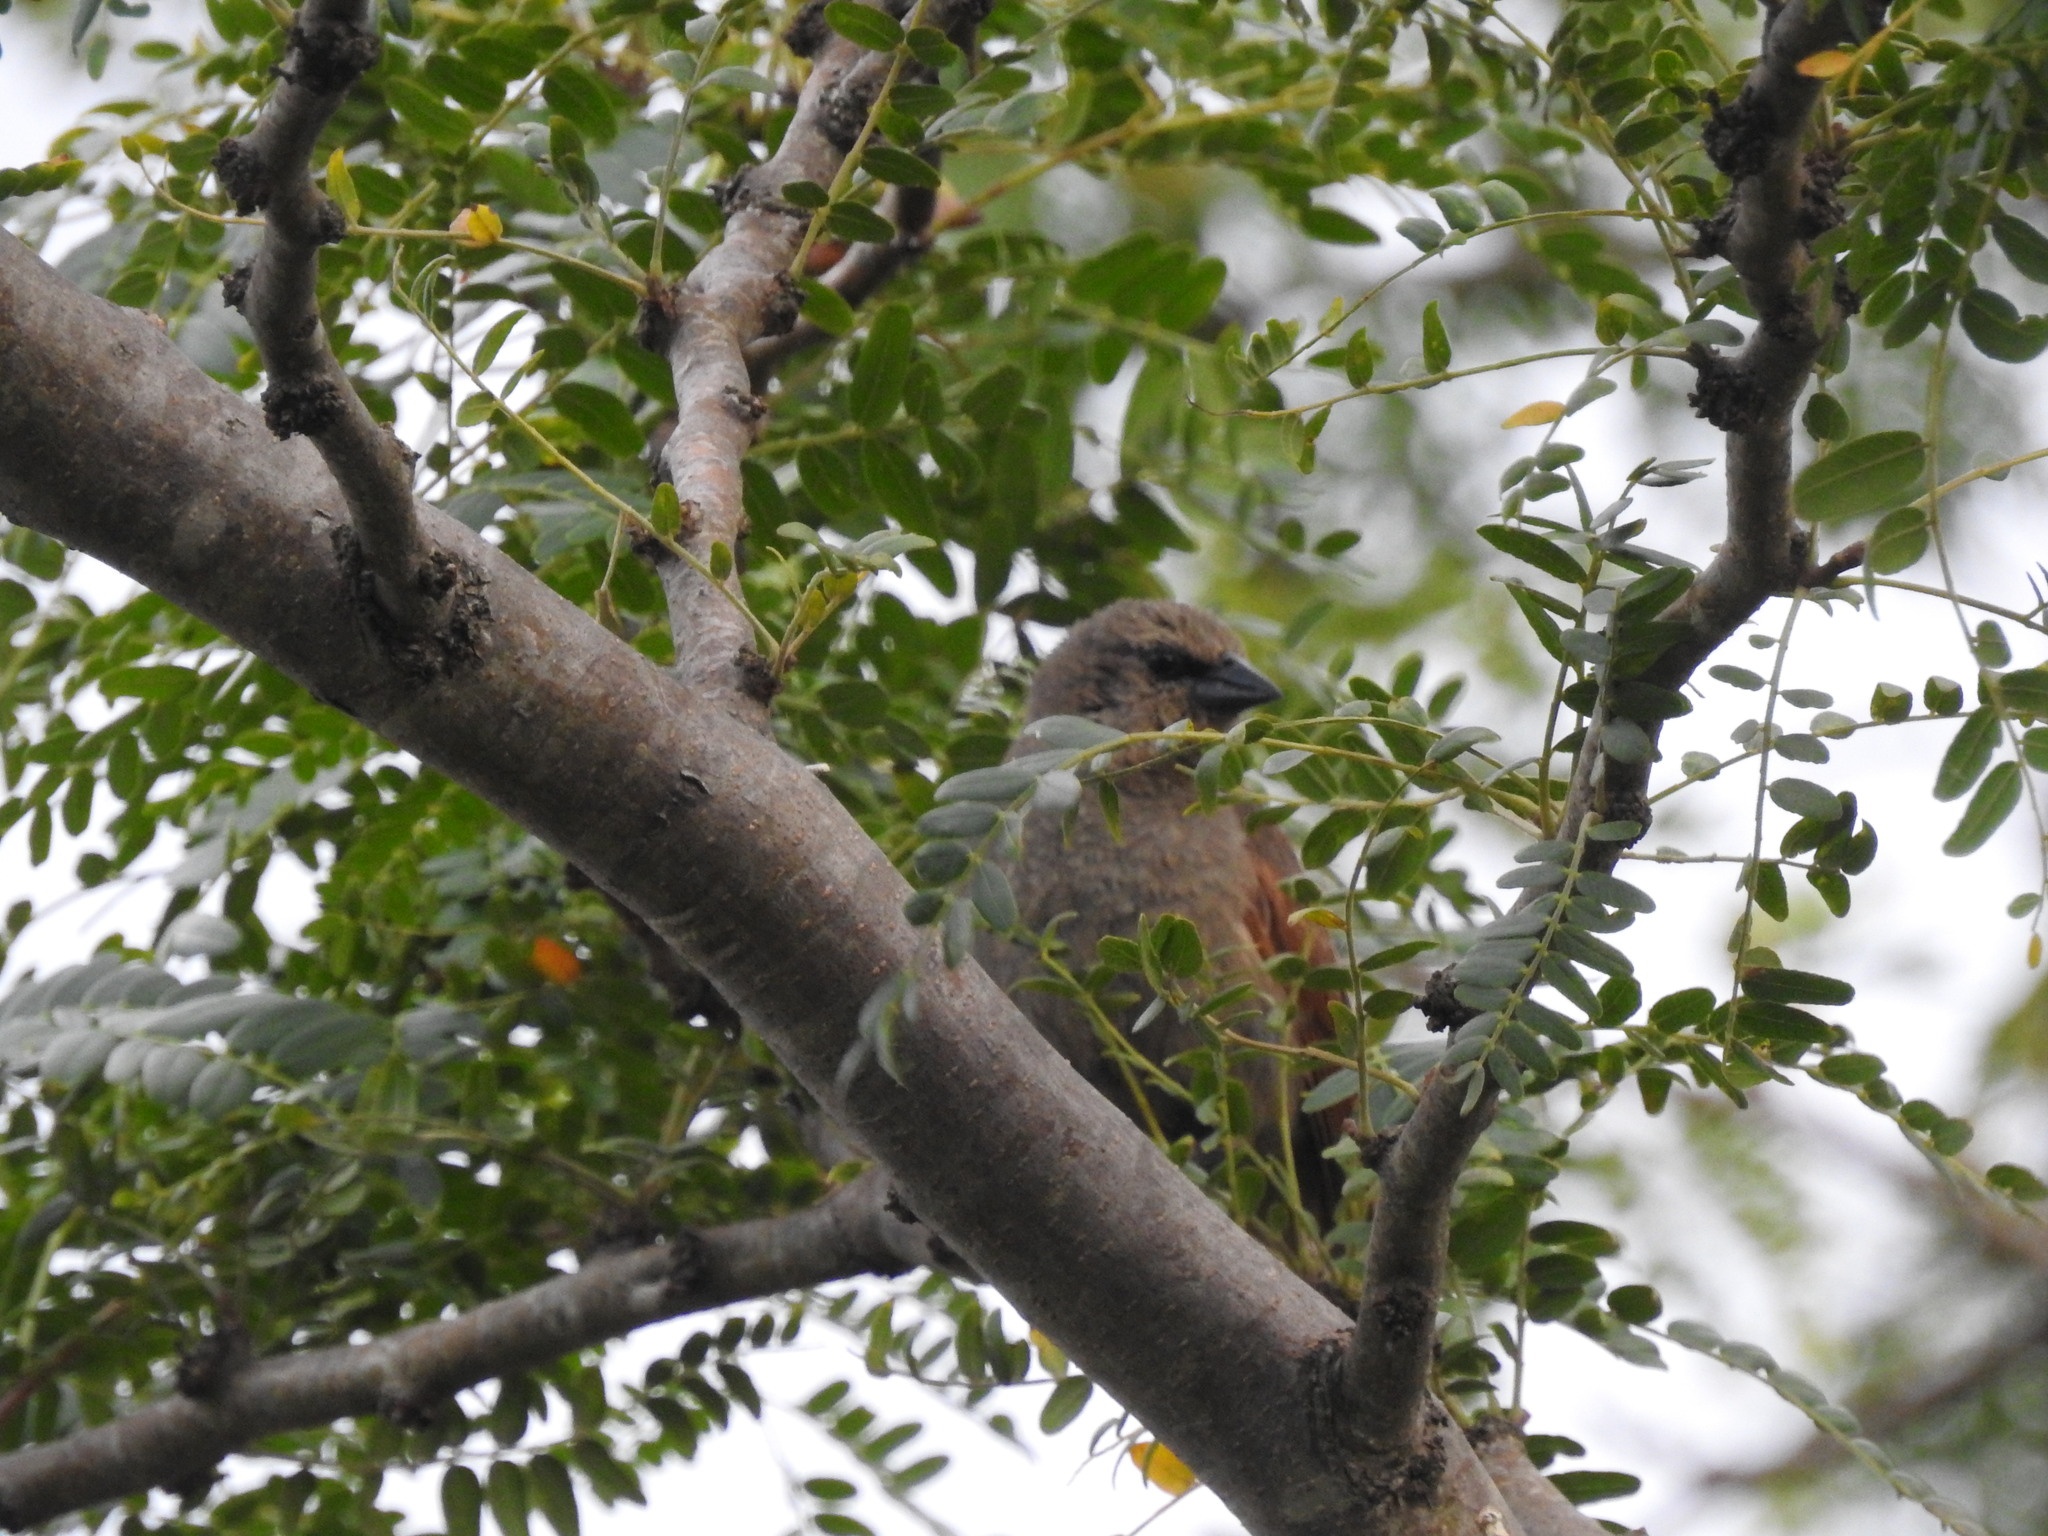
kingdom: Animalia
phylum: Chordata
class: Aves
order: Passeriformes
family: Icteridae
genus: Agelaioides
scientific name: Agelaioides badius
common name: Baywing
